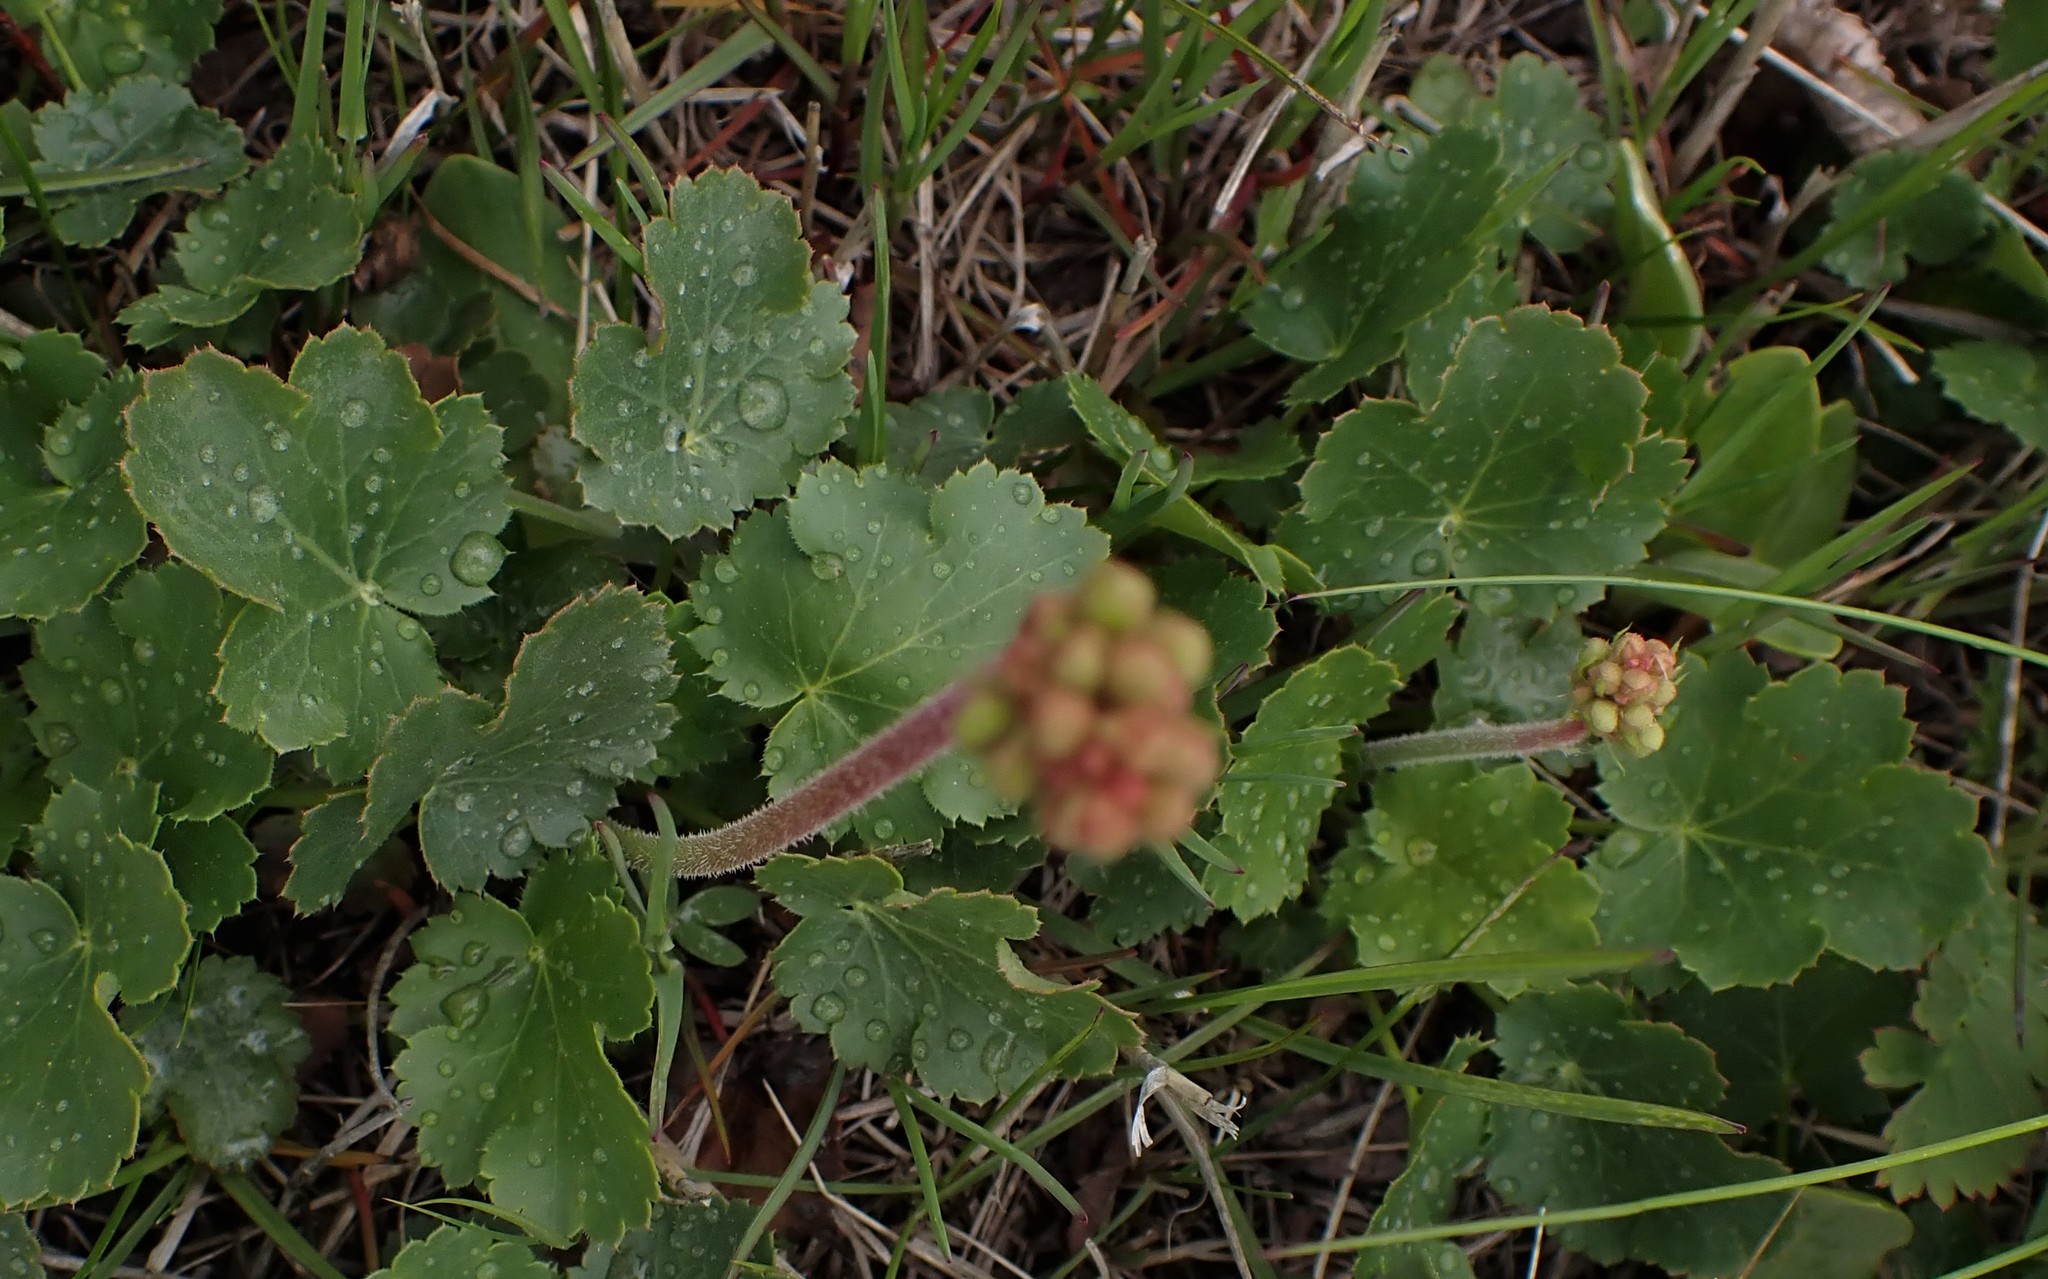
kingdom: Plantae
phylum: Tracheophyta
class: Magnoliopsida
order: Saxifragales
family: Saxifragaceae
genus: Heuchera
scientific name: Heuchera cylindrica
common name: Mat alumroot
